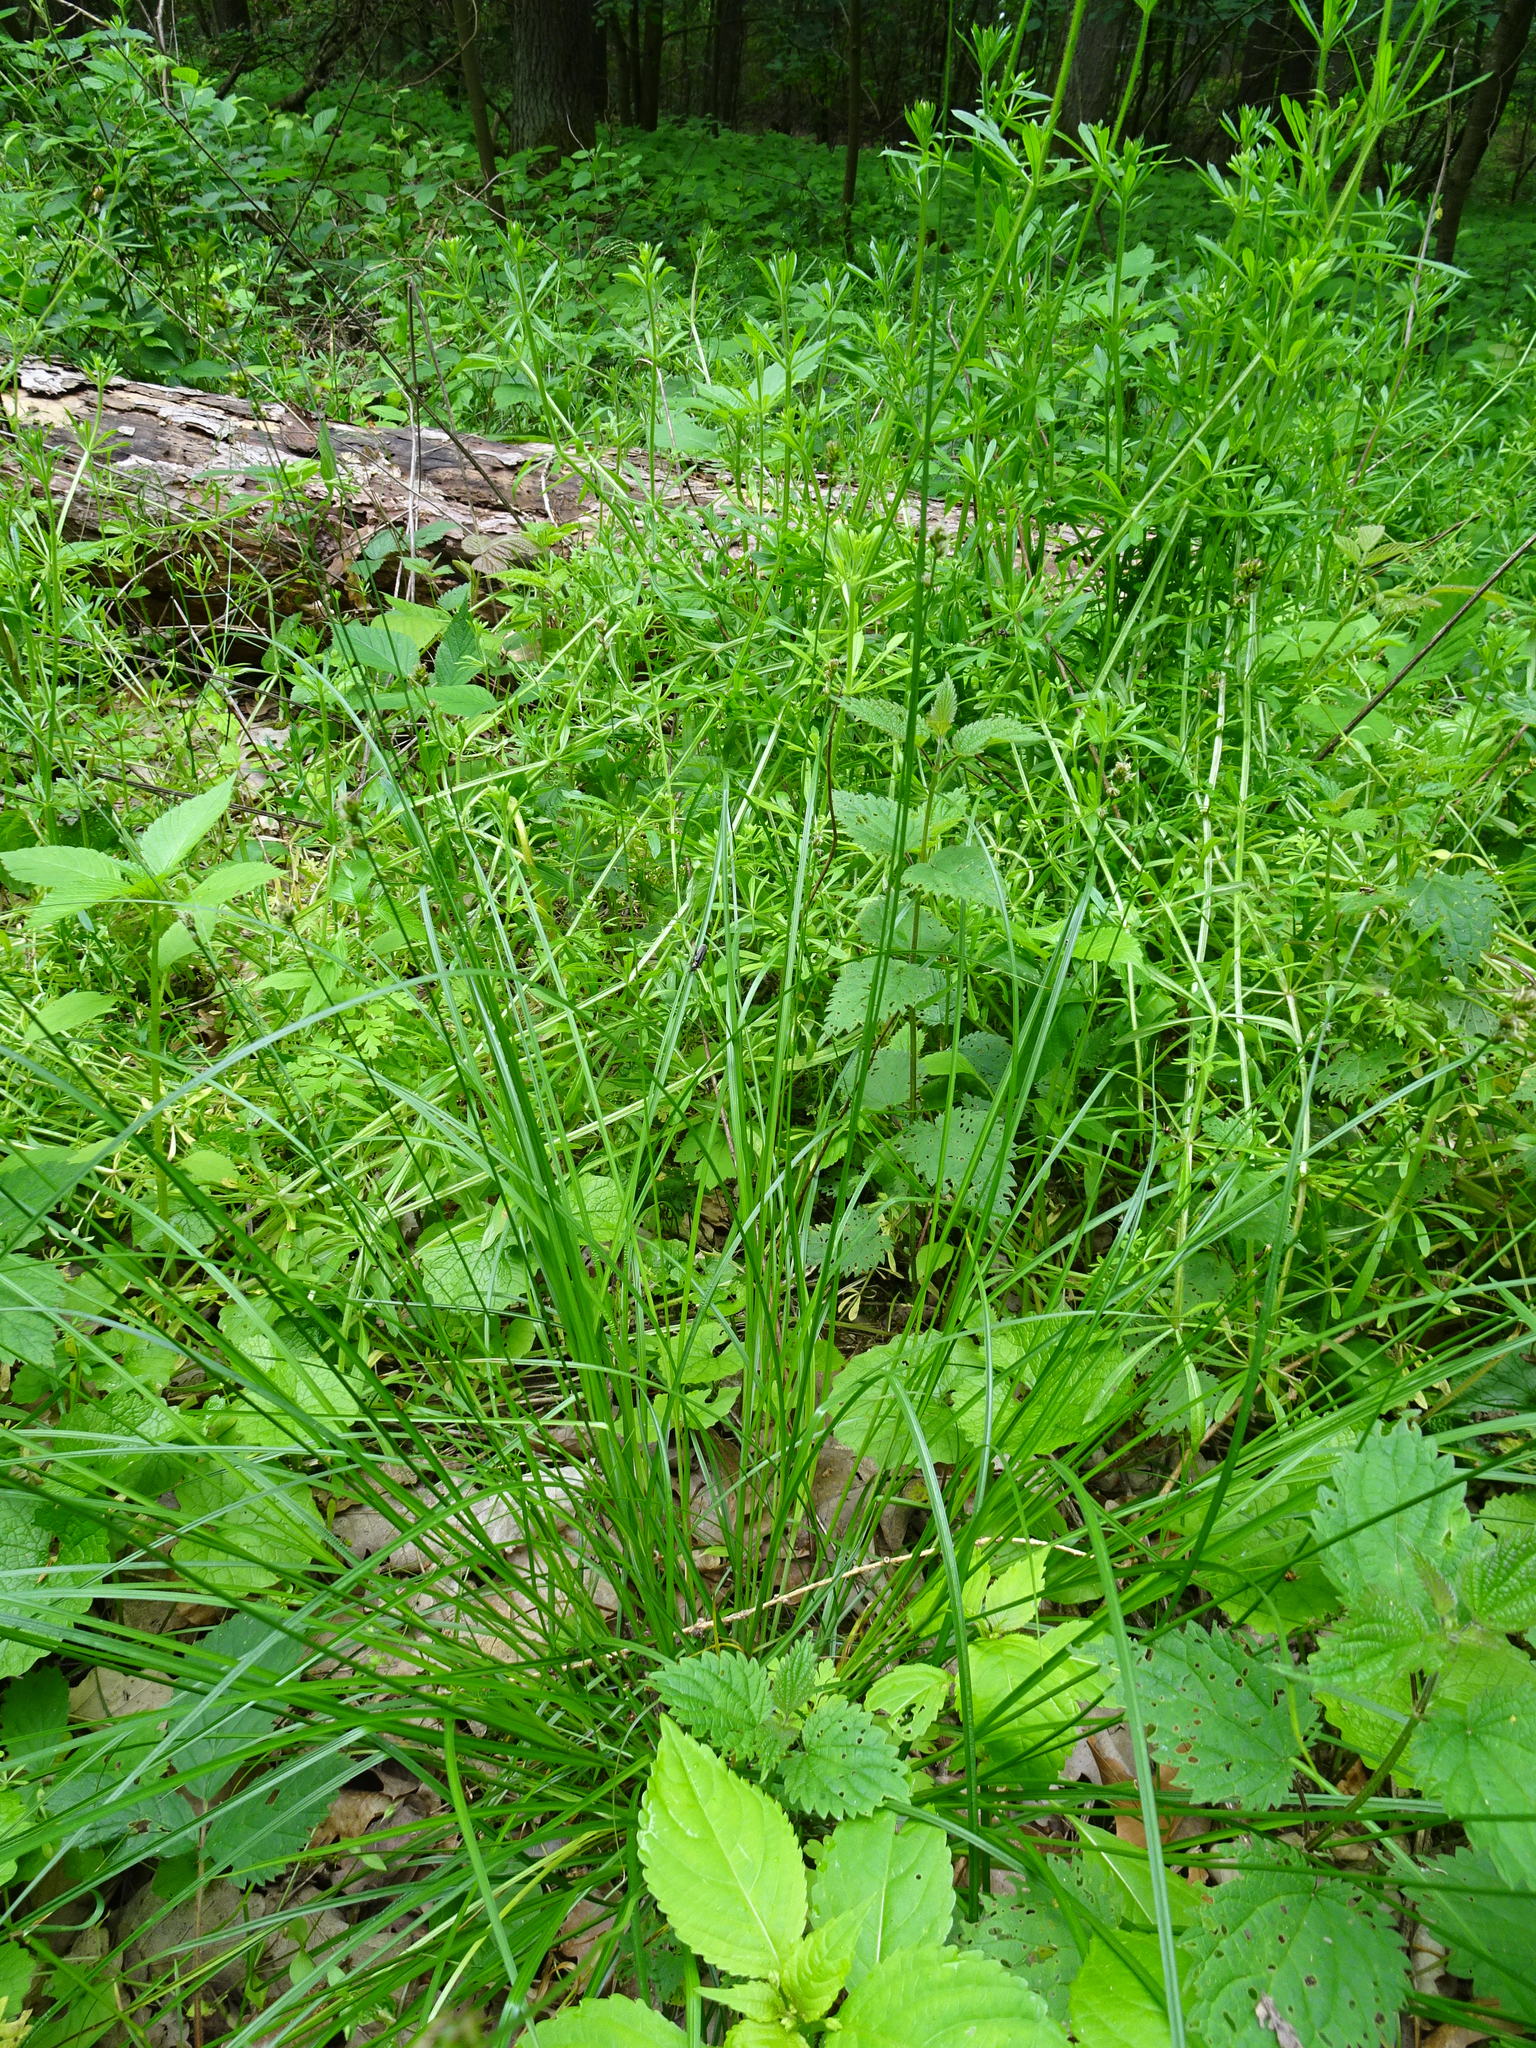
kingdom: Plantae
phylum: Tracheophyta
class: Liliopsida
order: Poales
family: Cyperaceae
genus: Carex
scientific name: Carex pilulifera
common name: Pill sedge
